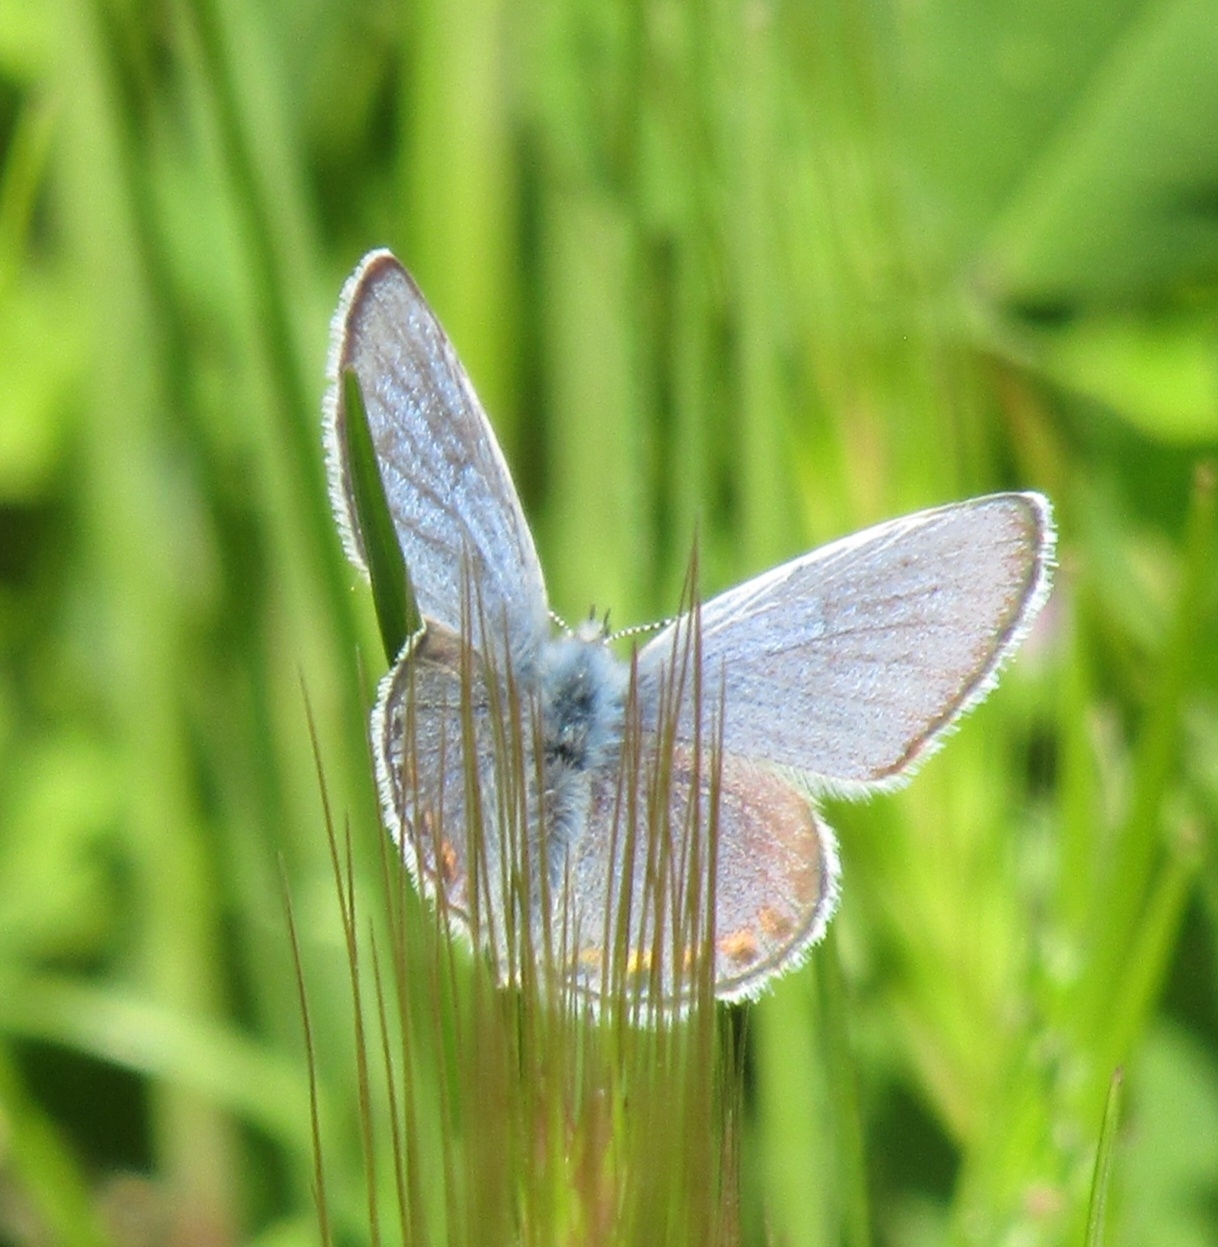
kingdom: Animalia
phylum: Arthropoda
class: Insecta
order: Lepidoptera
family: Lycaenidae
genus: Icaricia
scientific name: Icaricia acmon
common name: Acmon blue
